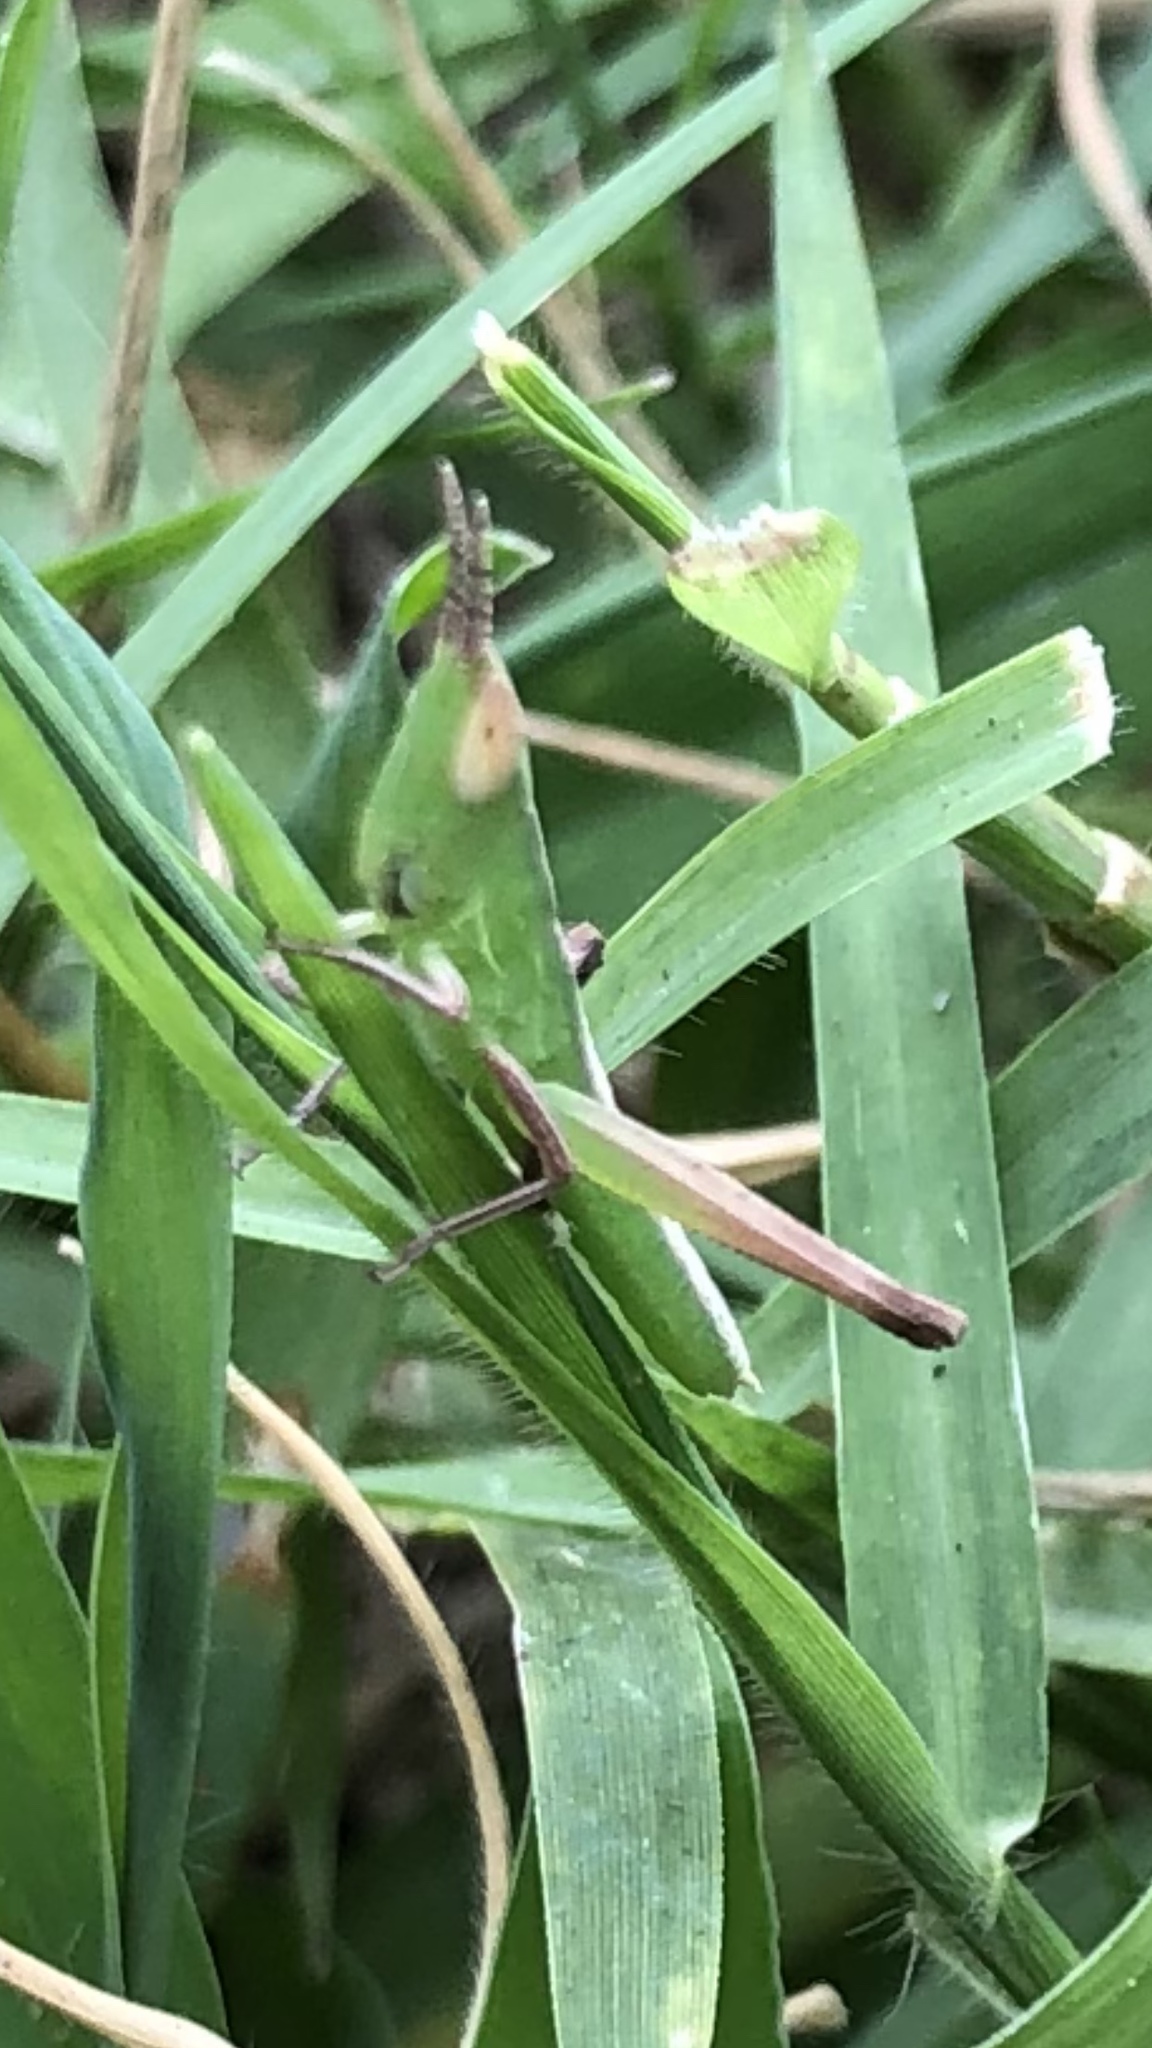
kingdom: Animalia
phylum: Arthropoda
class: Insecta
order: Orthoptera
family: Acrididae
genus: Syrbula
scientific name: Syrbula admirabilis
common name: Handsome grasshopper
